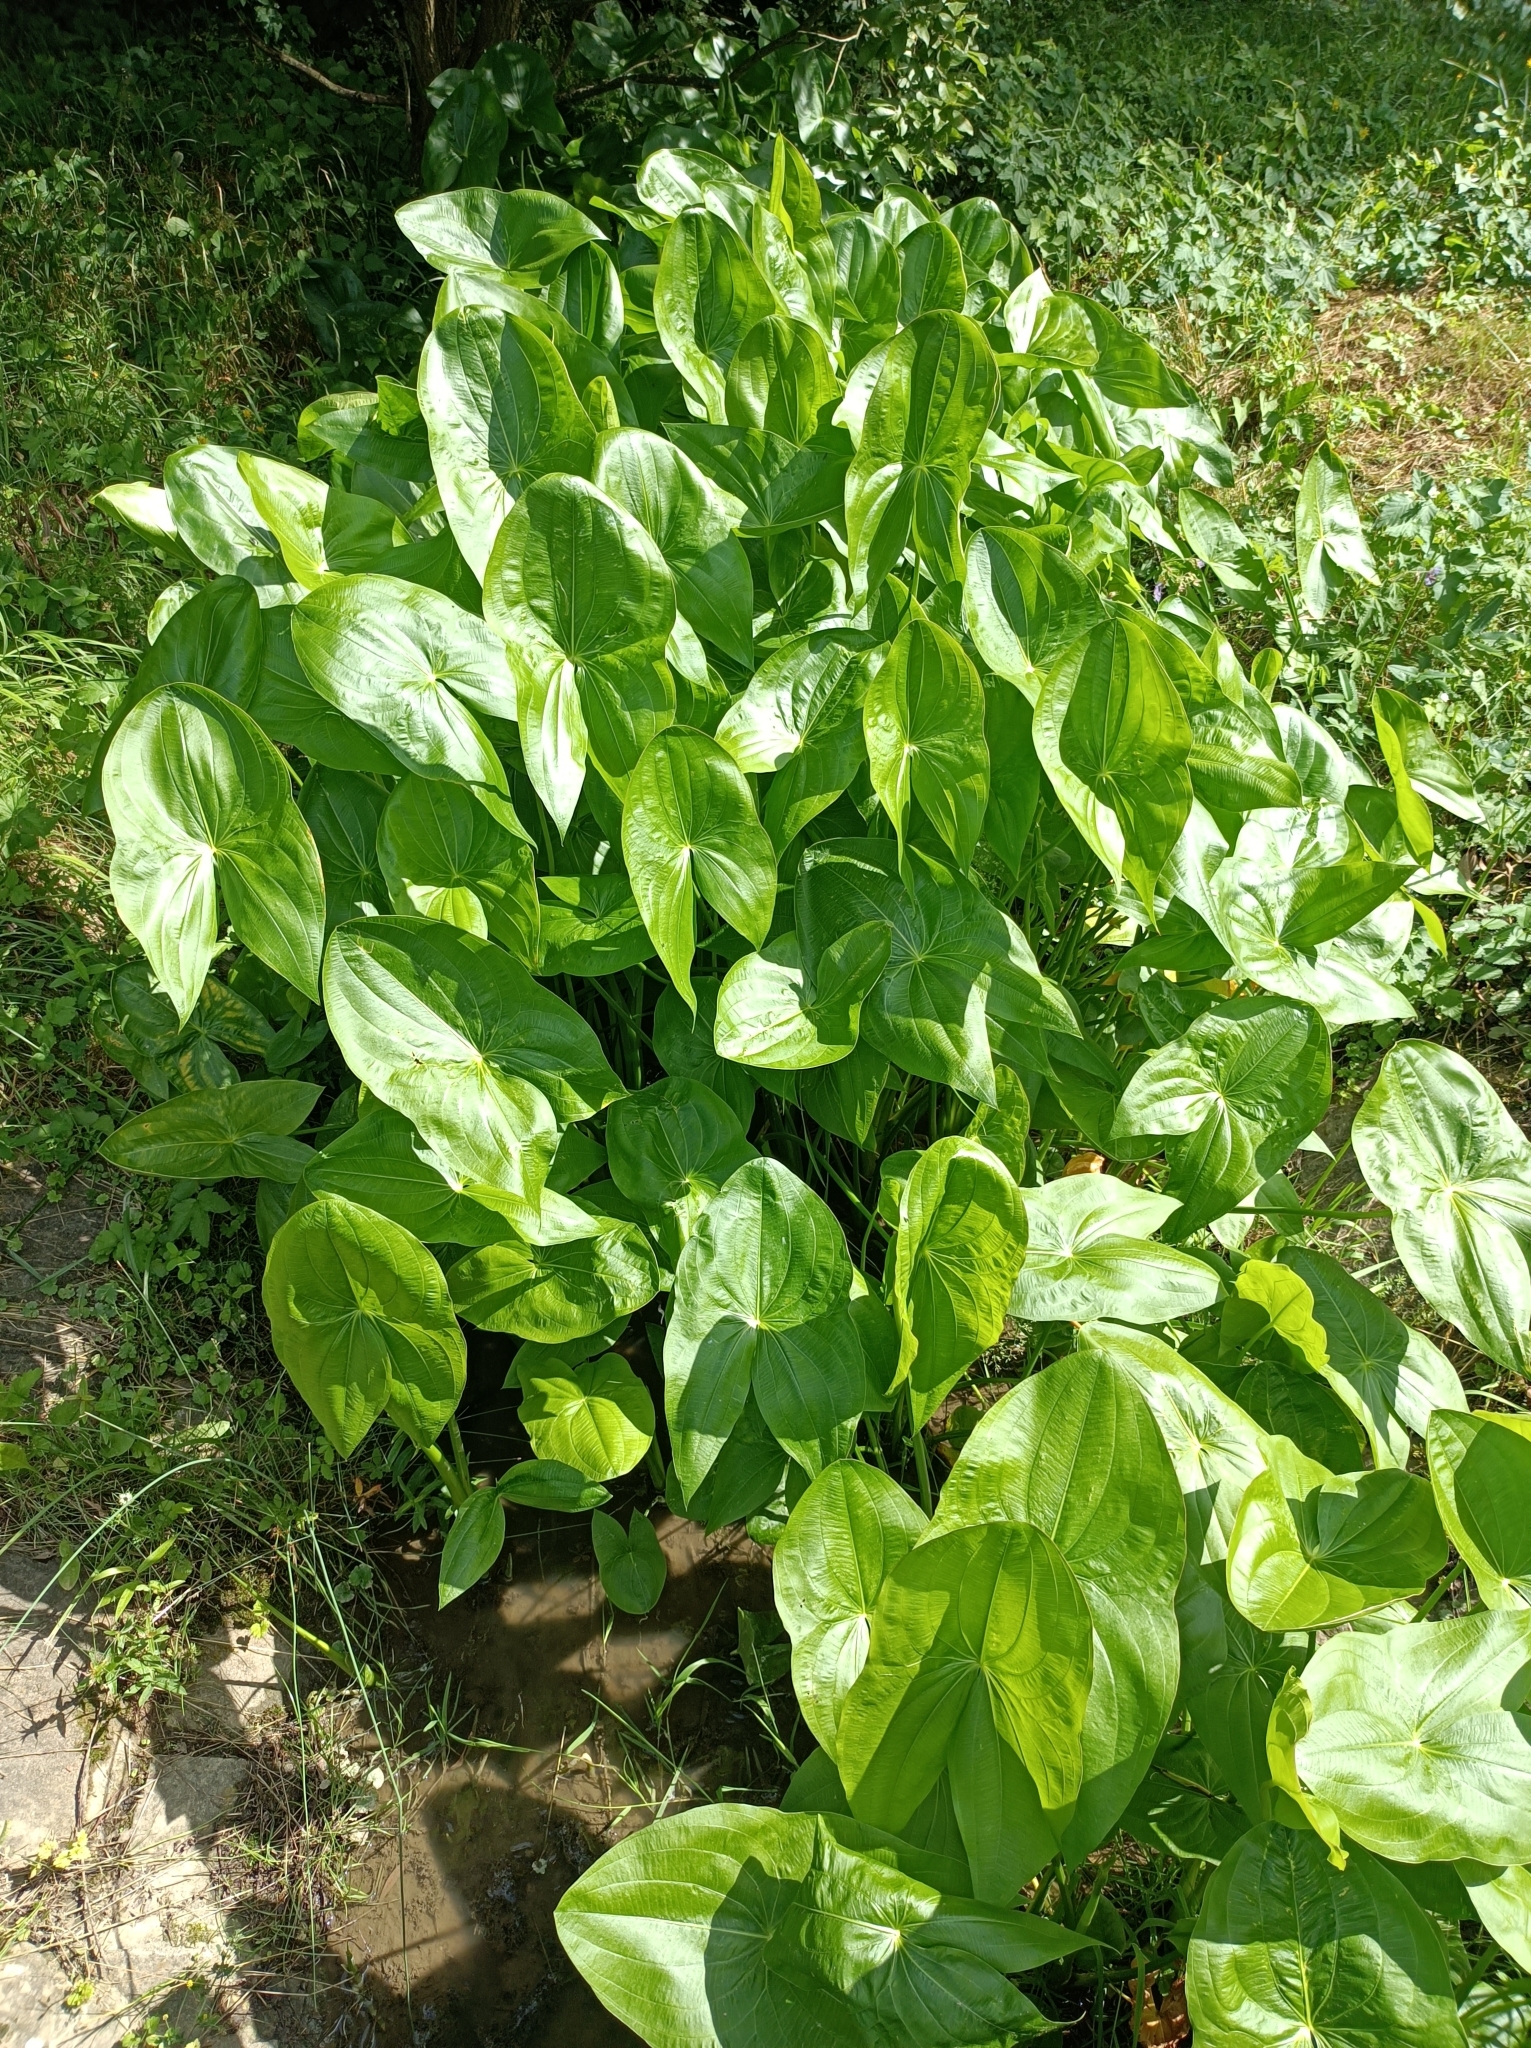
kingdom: Plantae
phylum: Tracheophyta
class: Liliopsida
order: Alismatales
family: Alismataceae
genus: Sagittaria
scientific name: Sagittaria latifolia
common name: Duck-potato
